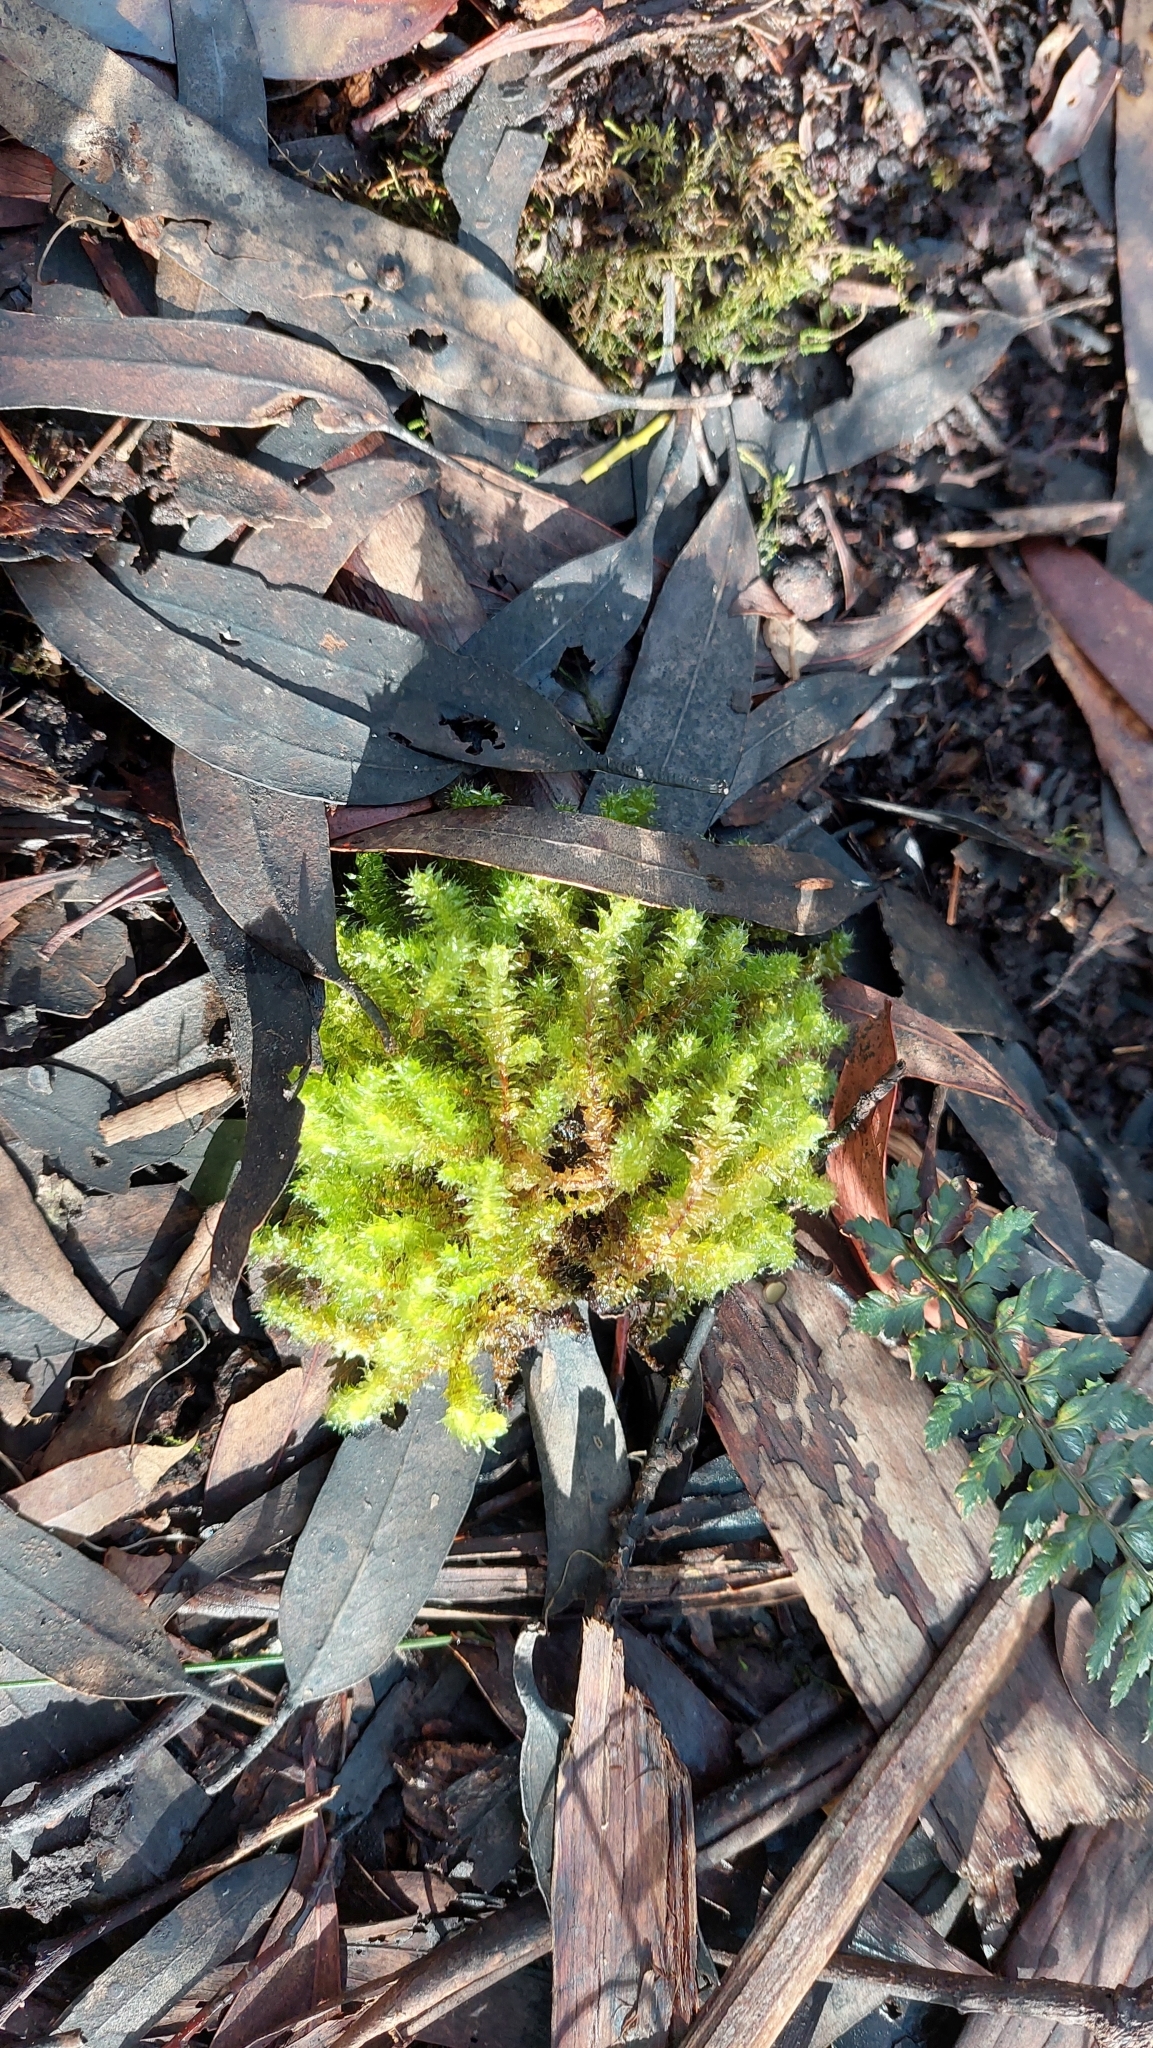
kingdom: Plantae
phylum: Bryophyta
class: Bryopsida
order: Ptychomniales
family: Ptychomniaceae
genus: Ptychomnion
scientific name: Ptychomnion aciculare
